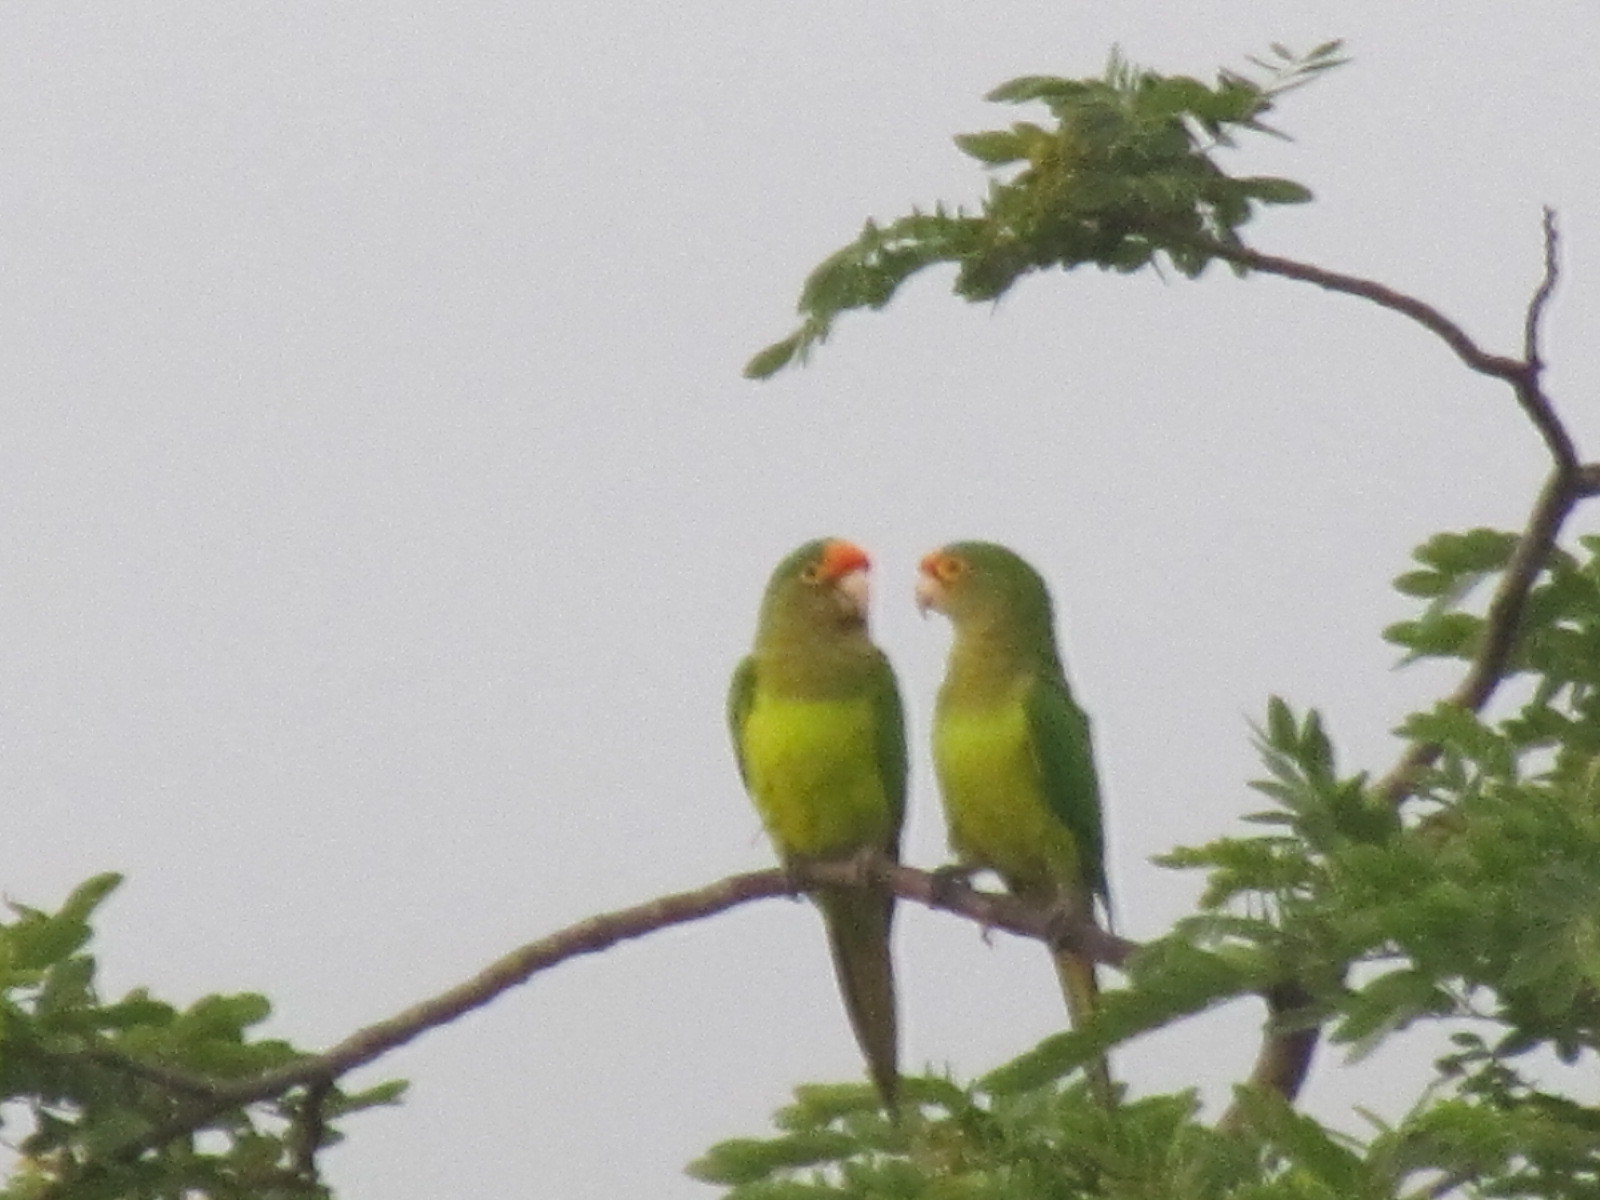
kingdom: Animalia
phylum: Chordata
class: Aves
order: Psittaciformes
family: Psittacidae
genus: Aratinga
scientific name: Aratinga canicularis
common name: Orange-fronted parakeet
